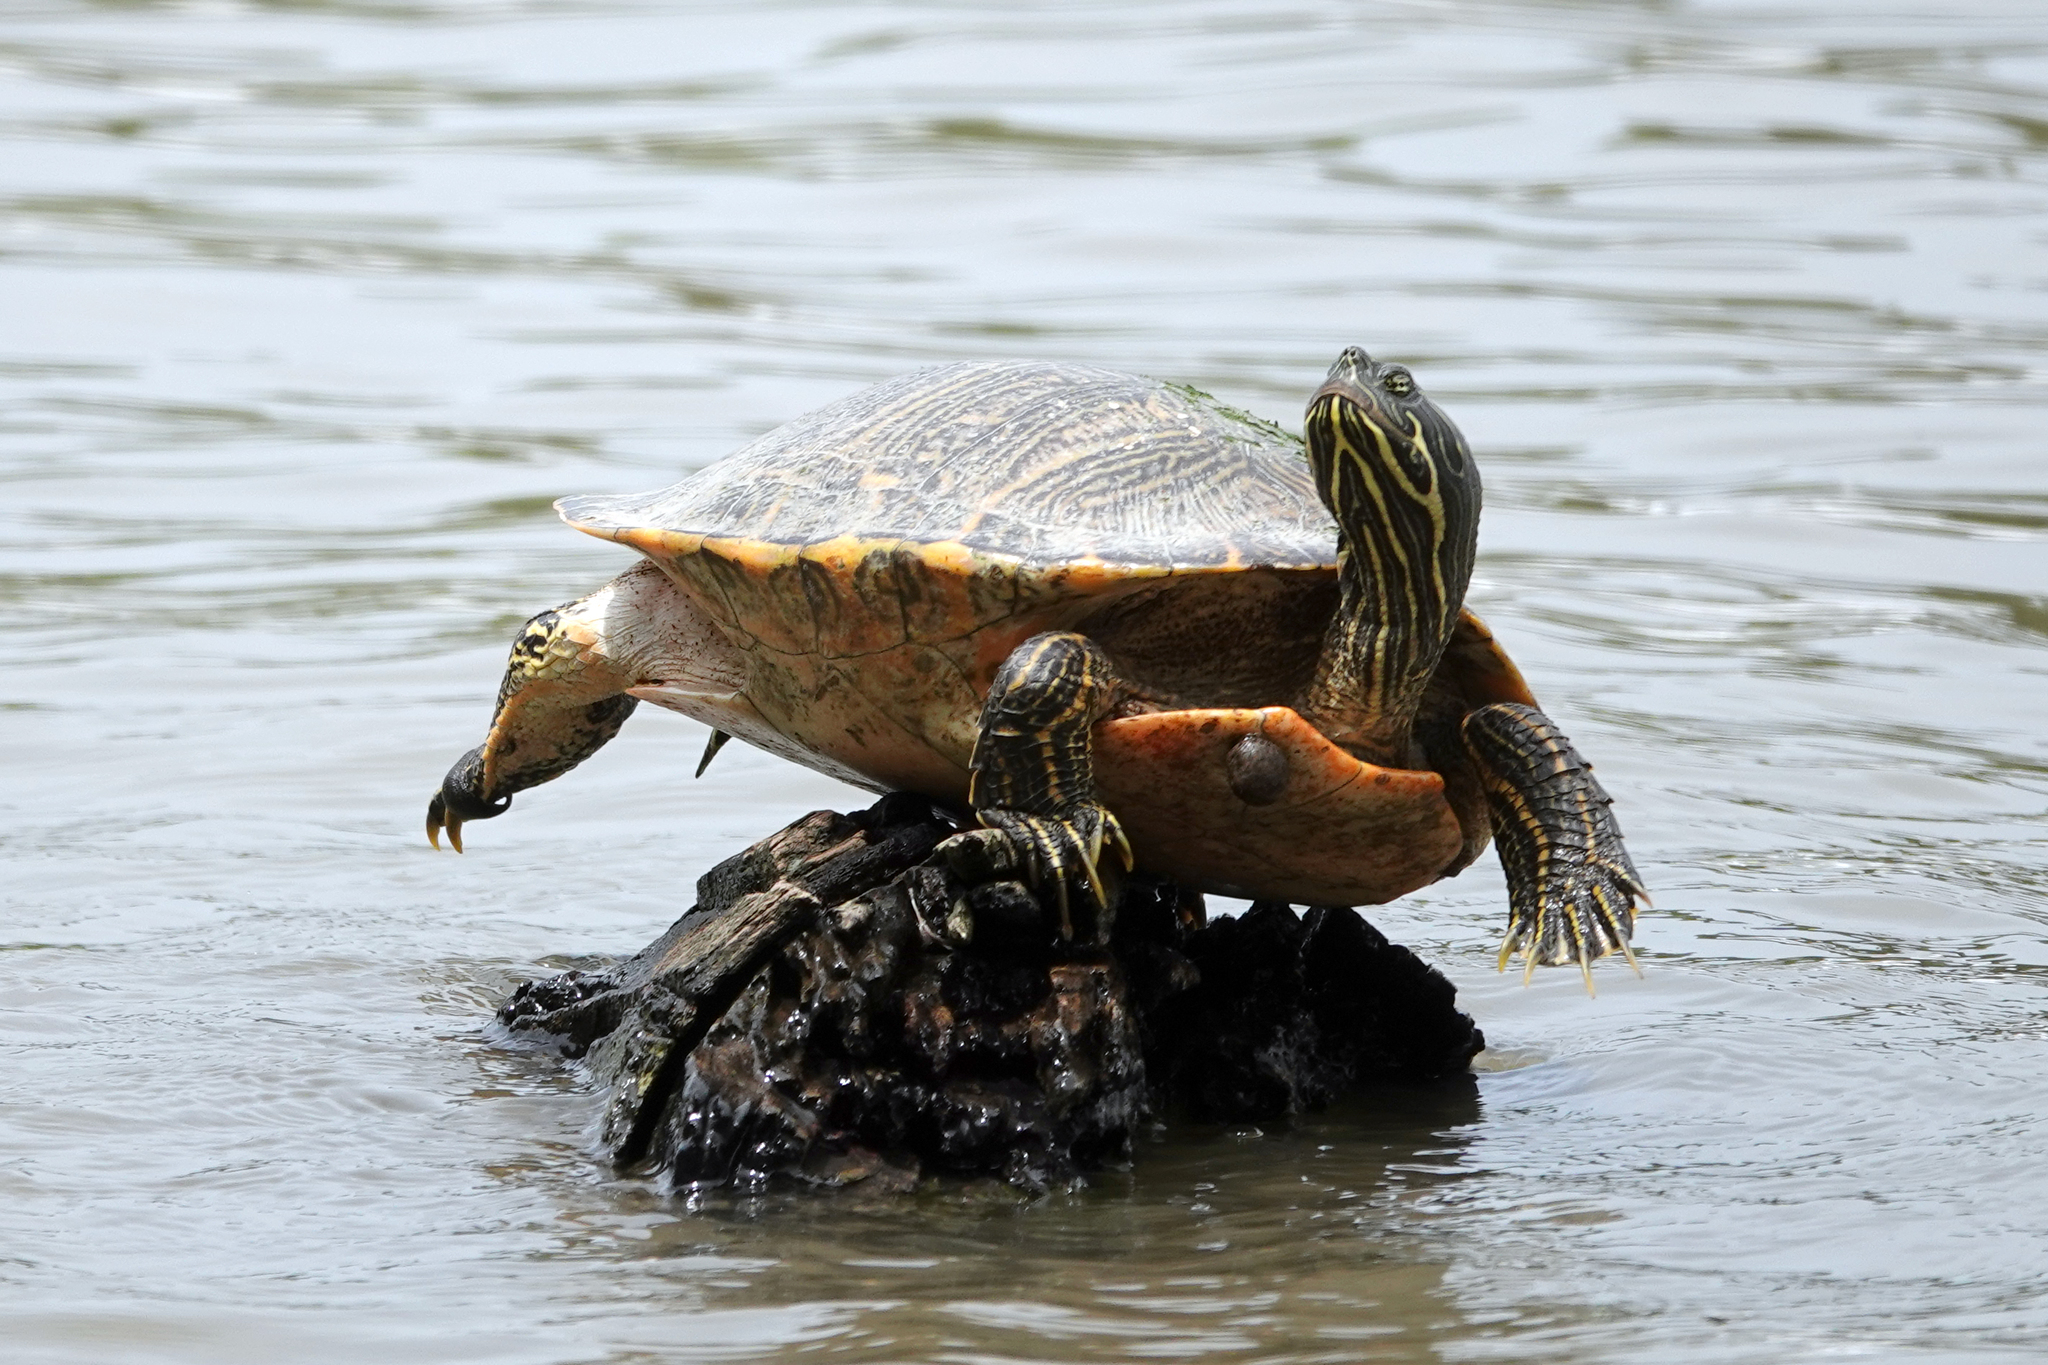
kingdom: Animalia
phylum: Chordata
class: Testudines
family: Emydidae
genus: Pseudemys
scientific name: Pseudemys concinna
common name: Eastern river cooter
